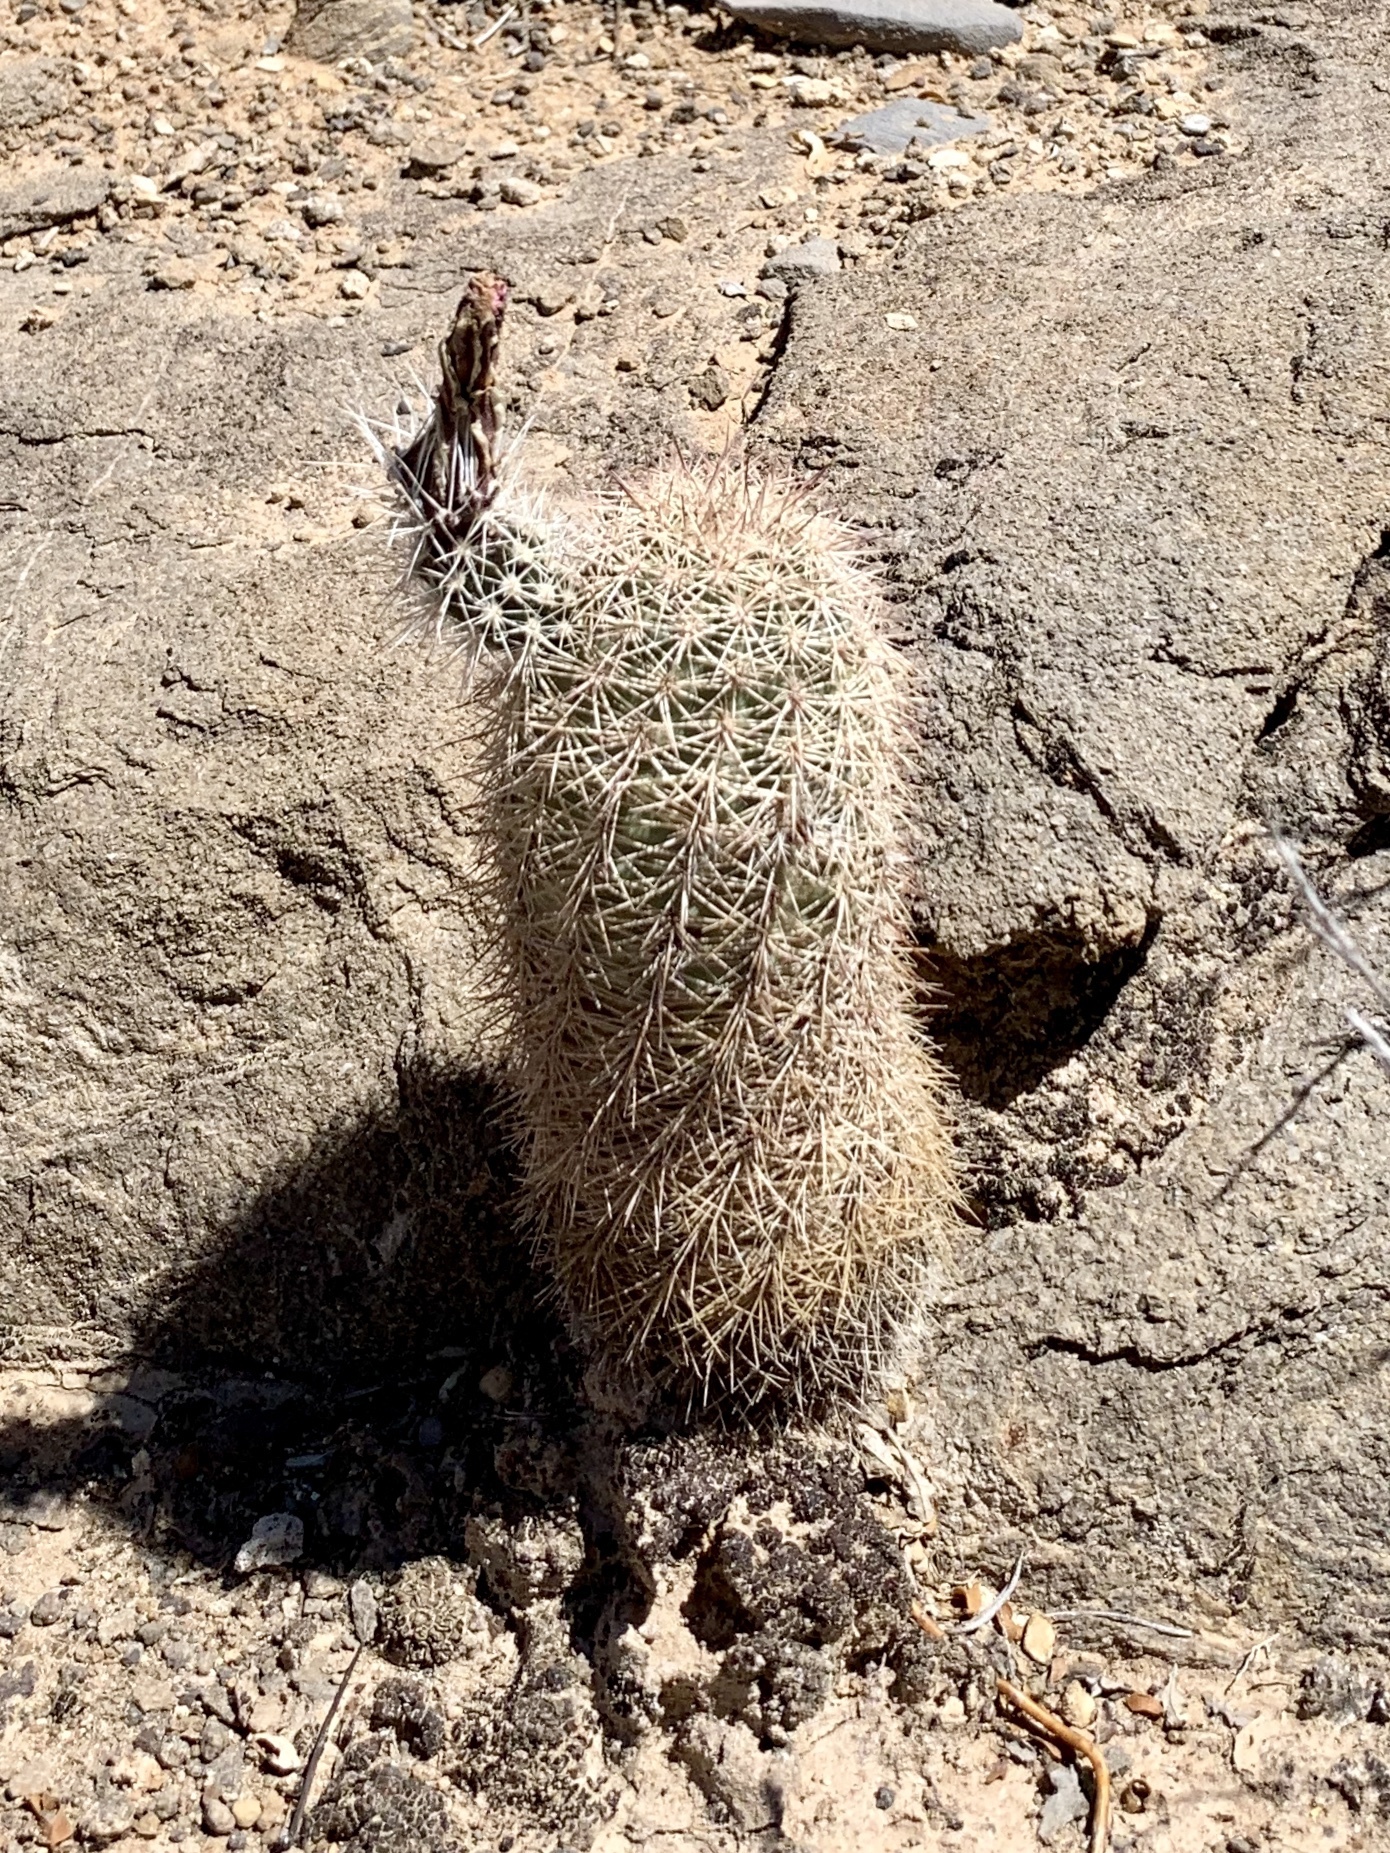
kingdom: Plantae
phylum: Tracheophyta
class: Magnoliopsida
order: Caryophyllales
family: Cactaceae
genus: Echinocereus
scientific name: Echinocereus dasyacanthus
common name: Spiny hedgehog cactus
